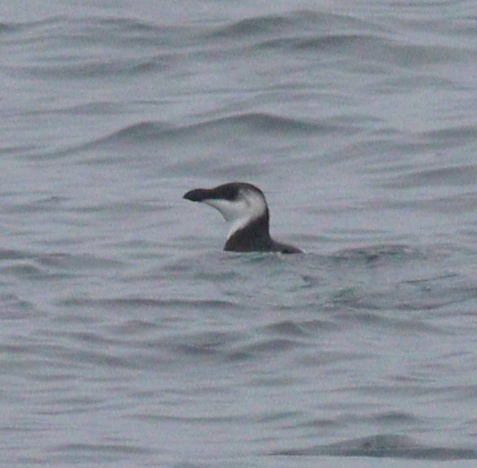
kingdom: Animalia
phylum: Chordata
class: Aves
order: Charadriiformes
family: Alcidae
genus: Alca
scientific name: Alca torda
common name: Razorbill
